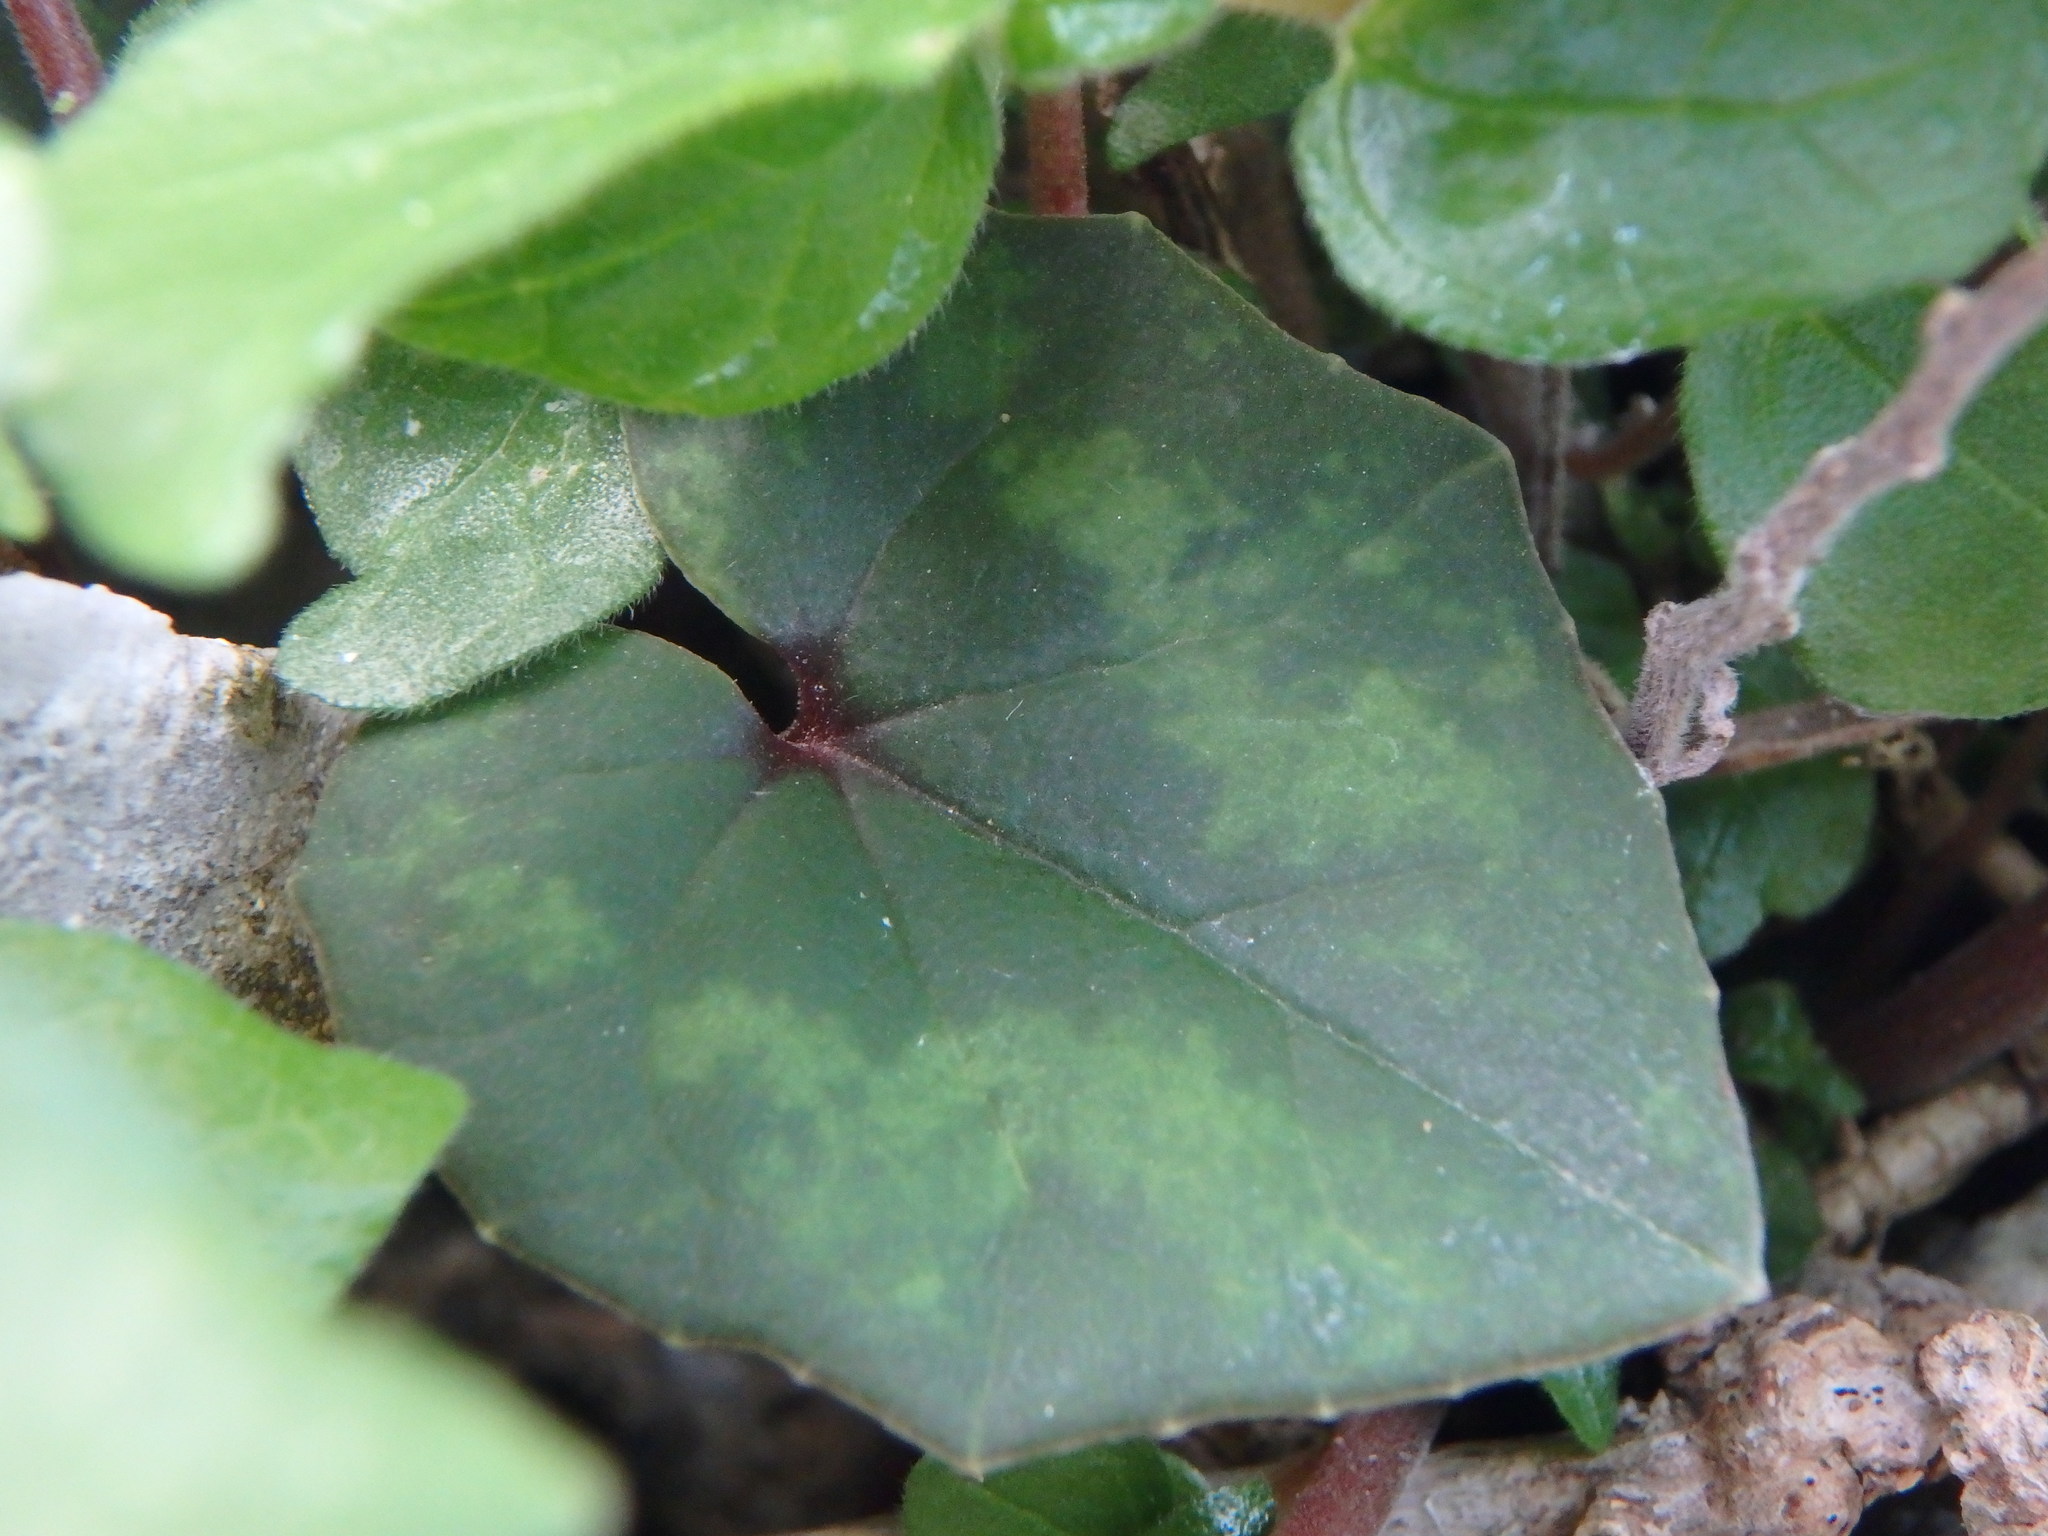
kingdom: Plantae
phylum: Tracheophyta
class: Magnoliopsida
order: Ericales
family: Primulaceae
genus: Cyclamen
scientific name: Cyclamen cyprium
